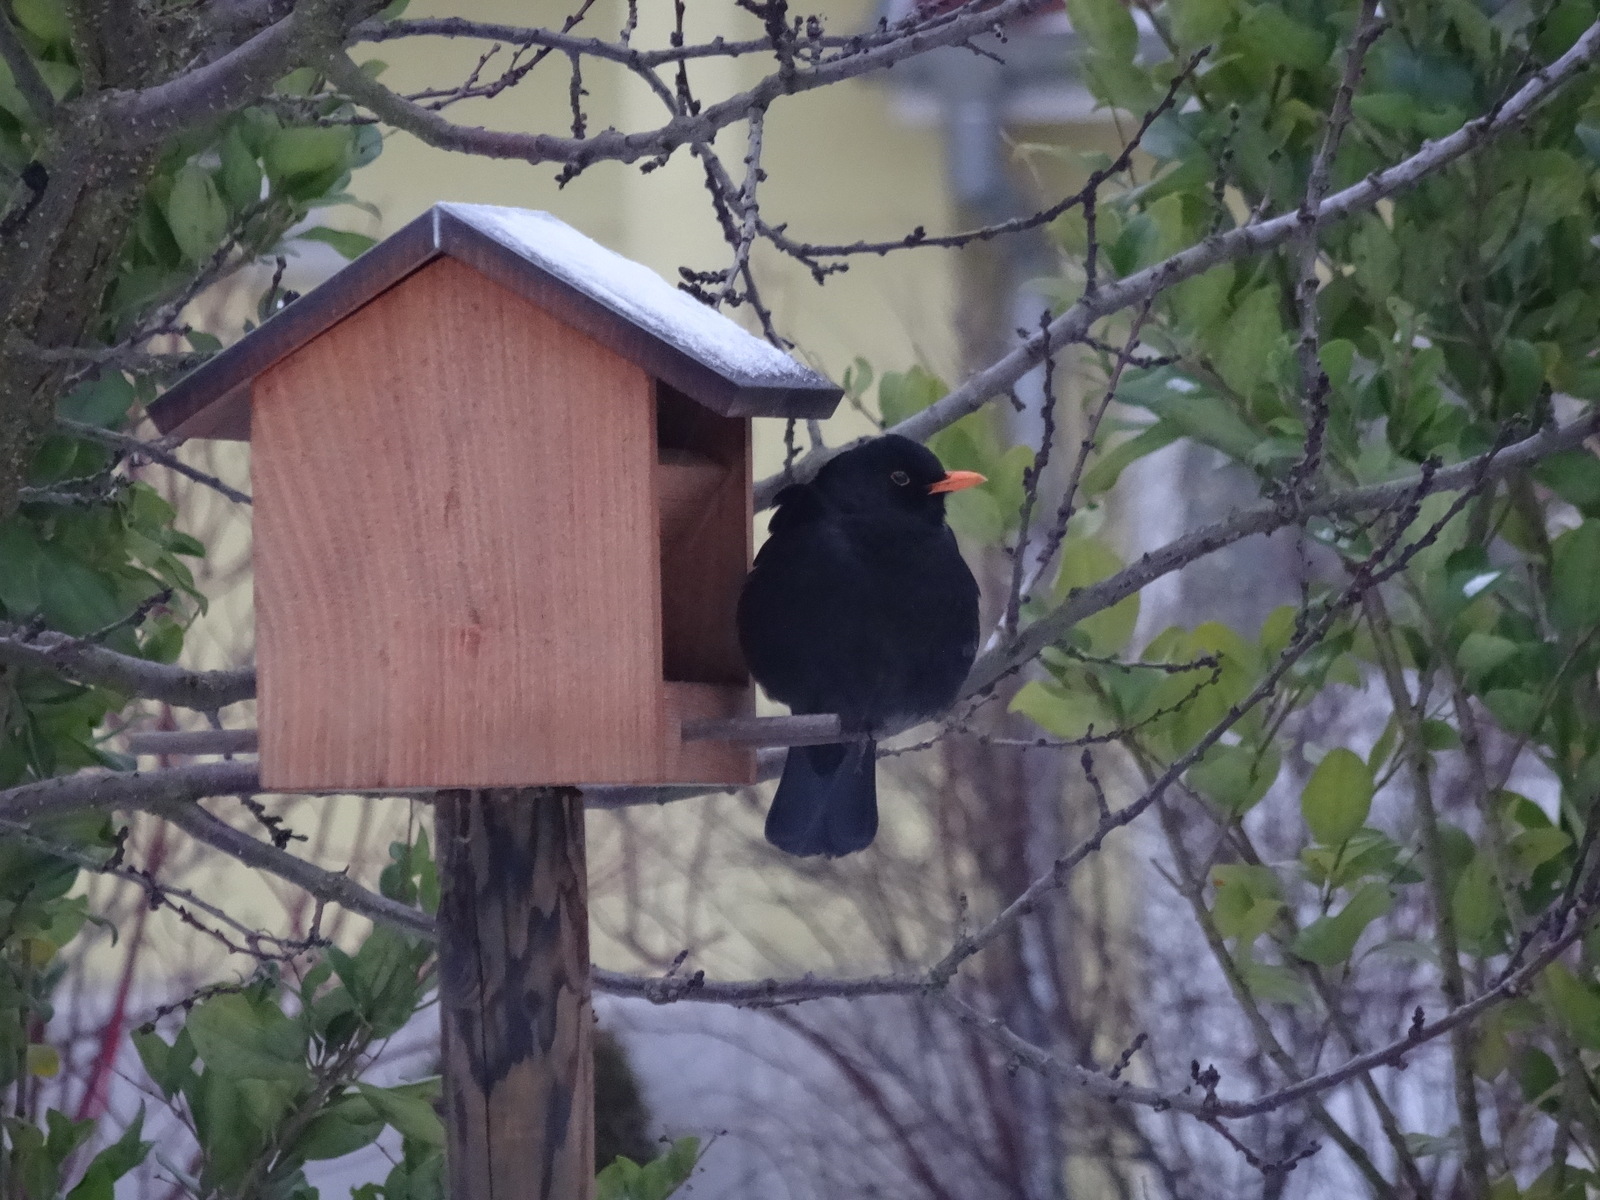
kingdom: Animalia
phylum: Chordata
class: Aves
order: Passeriformes
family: Turdidae
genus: Turdus
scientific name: Turdus merula
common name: Common blackbird
